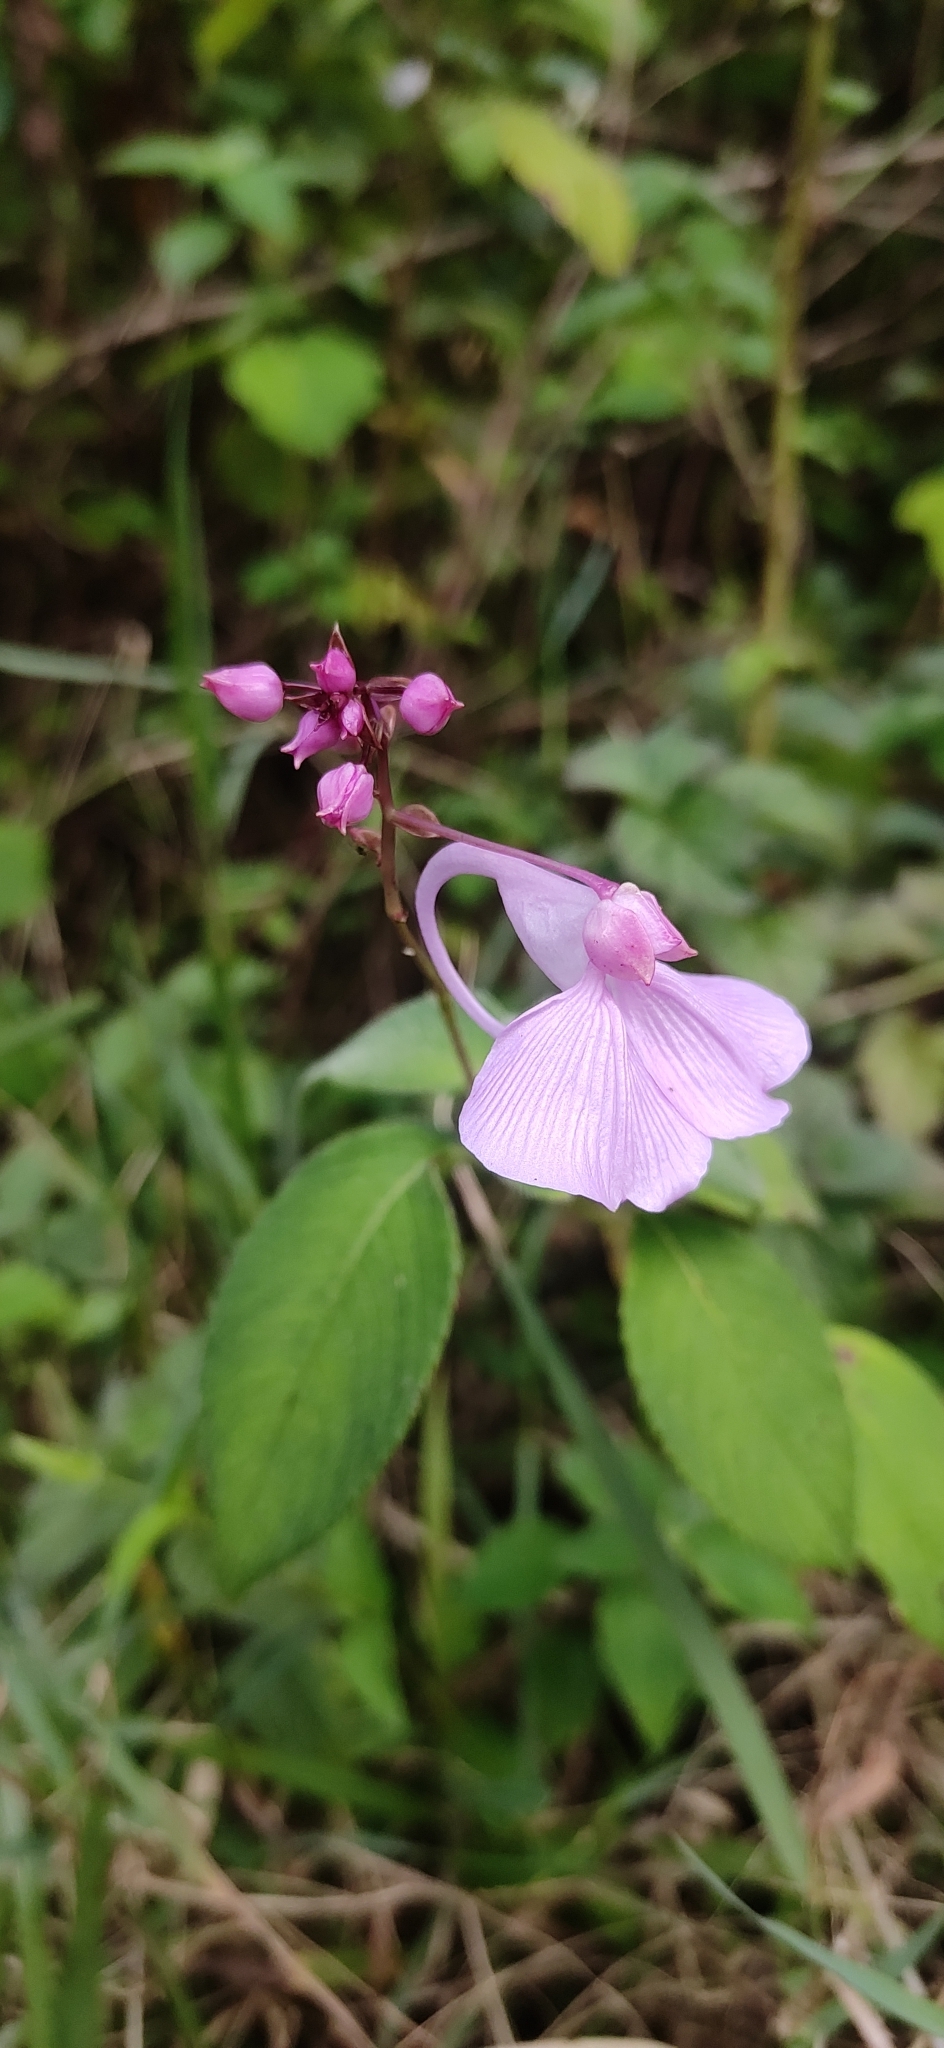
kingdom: Plantae
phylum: Tracheophyta
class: Magnoliopsida
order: Ericales
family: Balsaminaceae
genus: Impatiens
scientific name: Impatiens maculata
